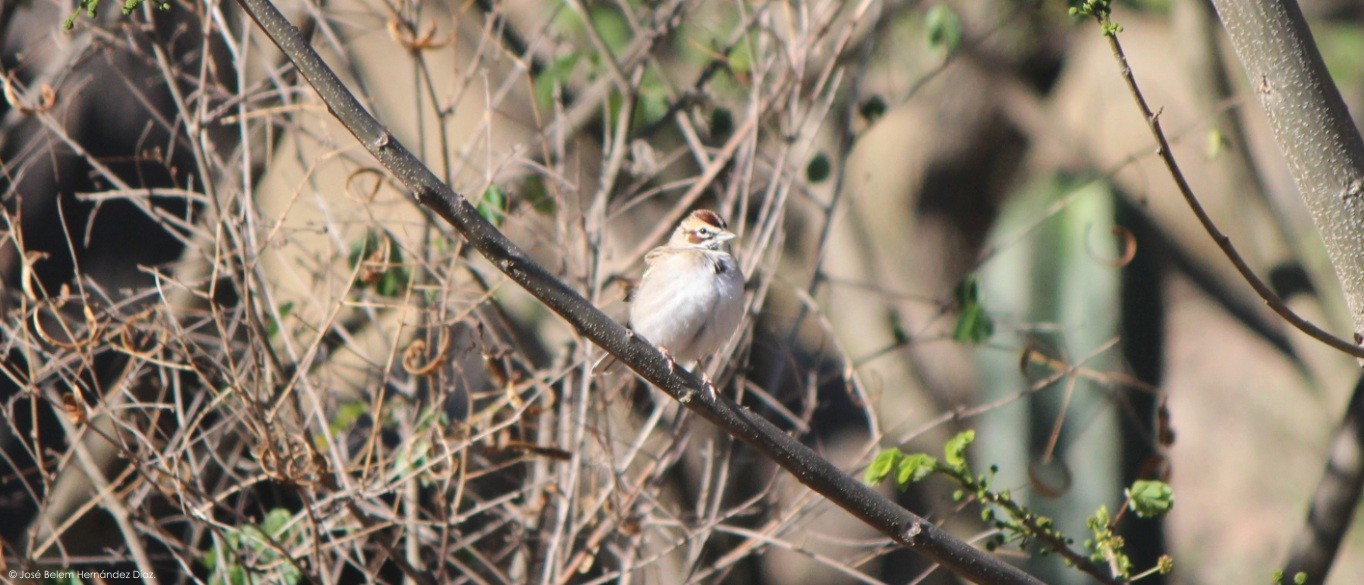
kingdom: Animalia
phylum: Chordata
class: Aves
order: Passeriformes
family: Passerellidae
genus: Chondestes
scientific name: Chondestes grammacus
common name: Lark sparrow
